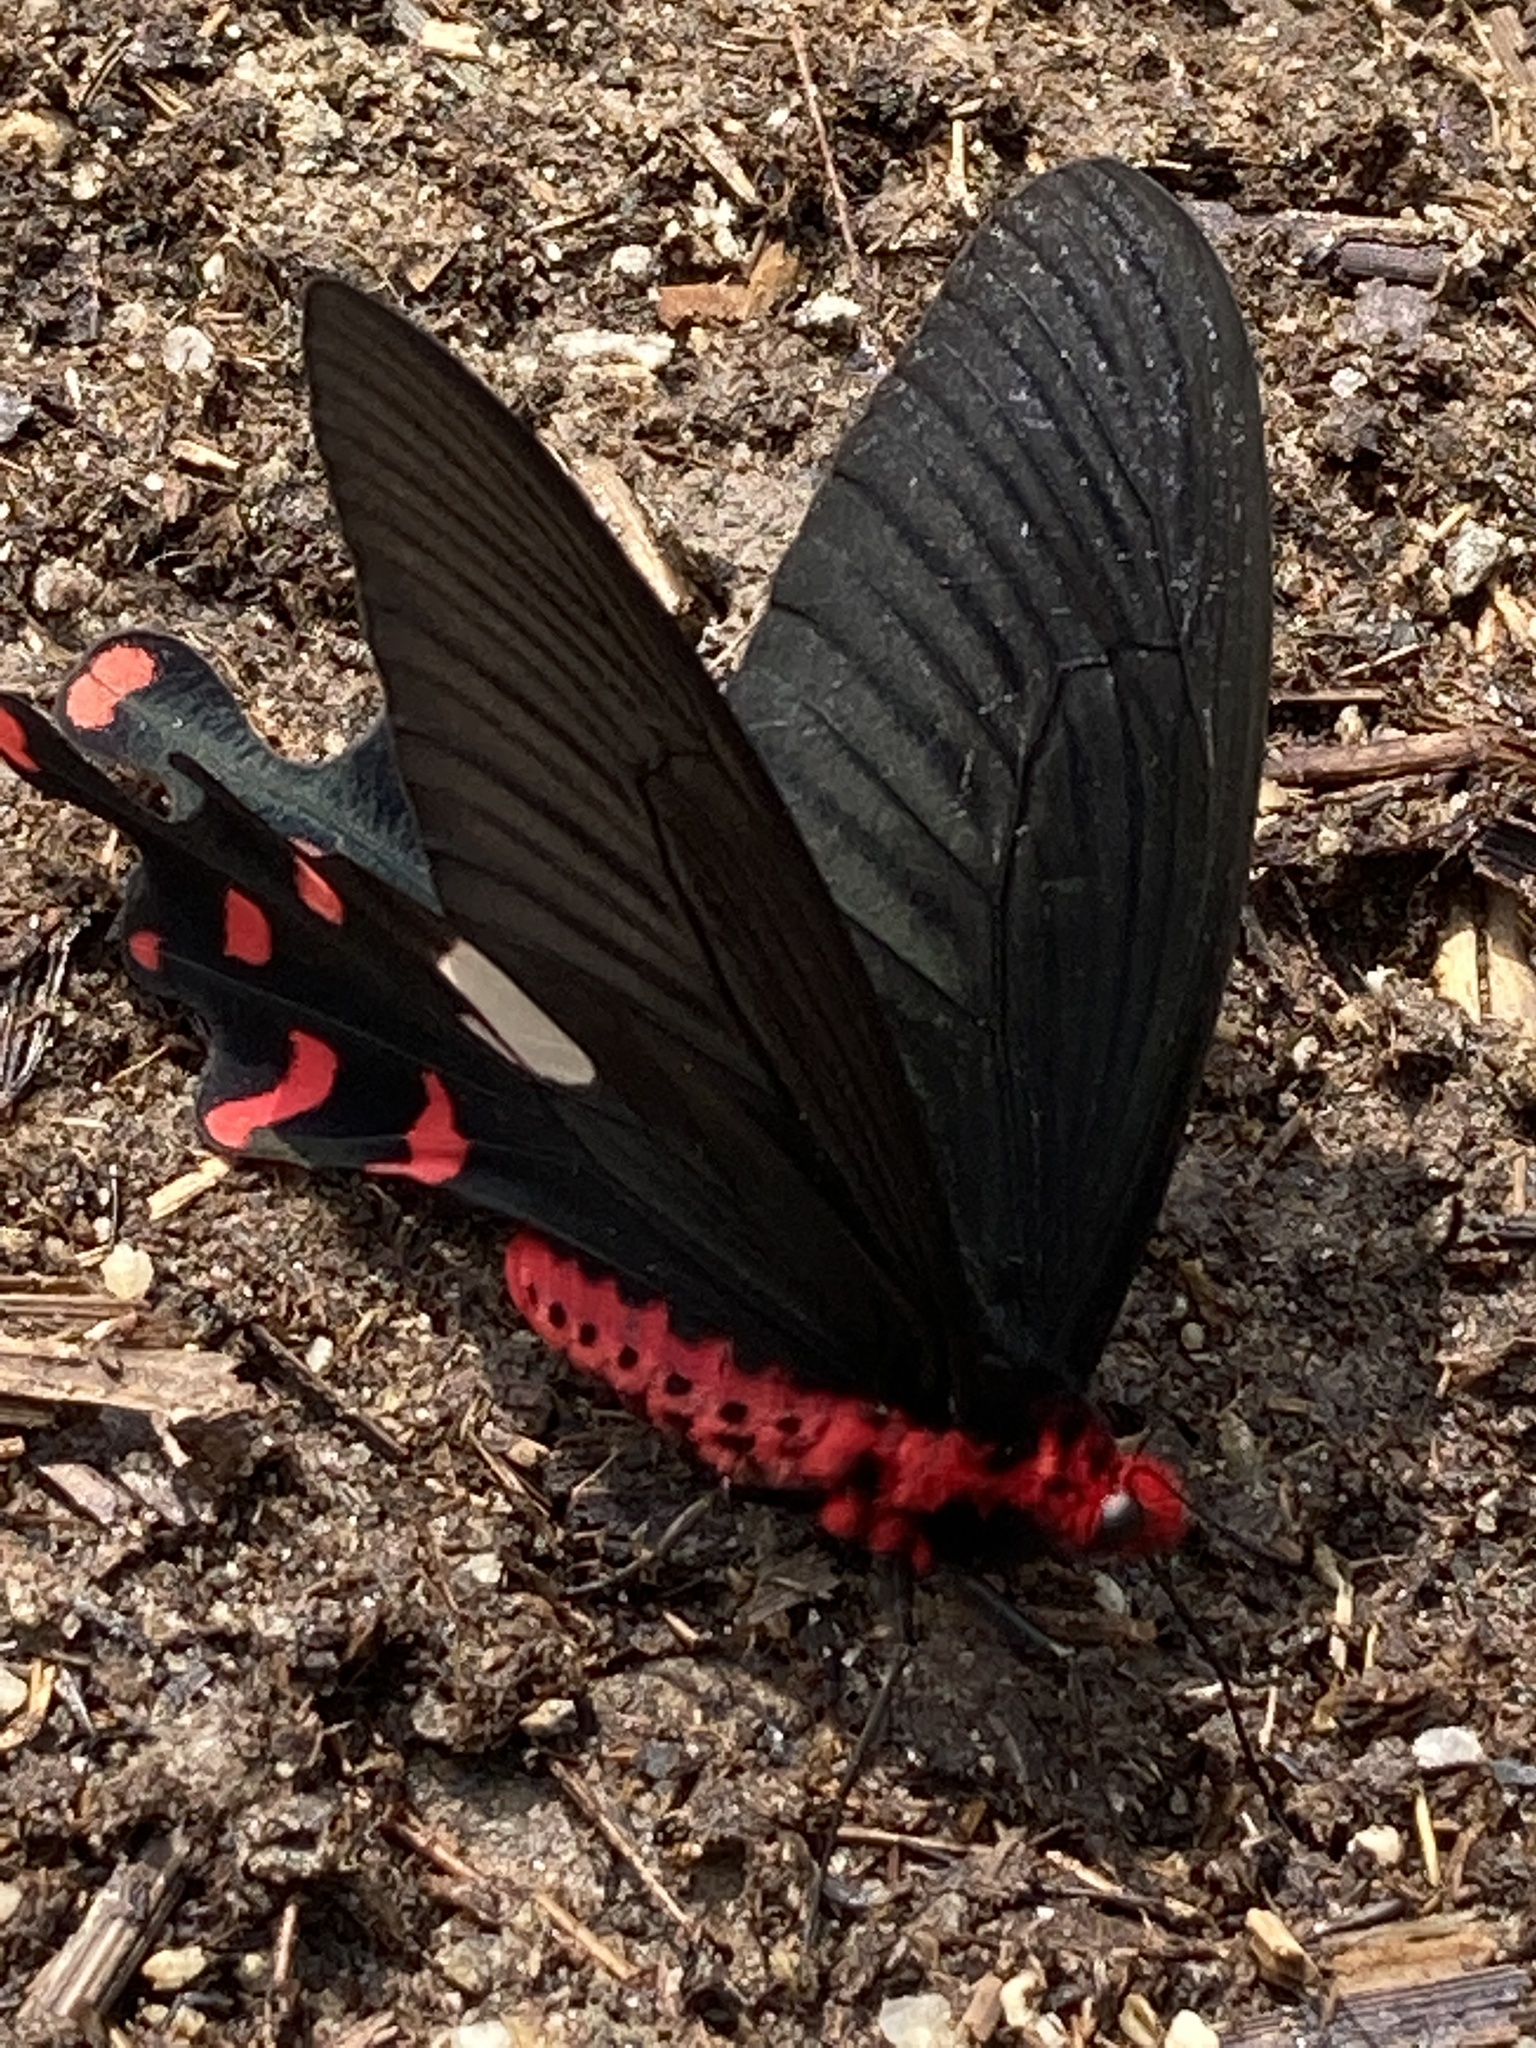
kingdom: Animalia
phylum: Arthropoda
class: Insecta
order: Lepidoptera
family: Papilionidae
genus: Byasa
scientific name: Byasa polyeuctes
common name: Common windmill
